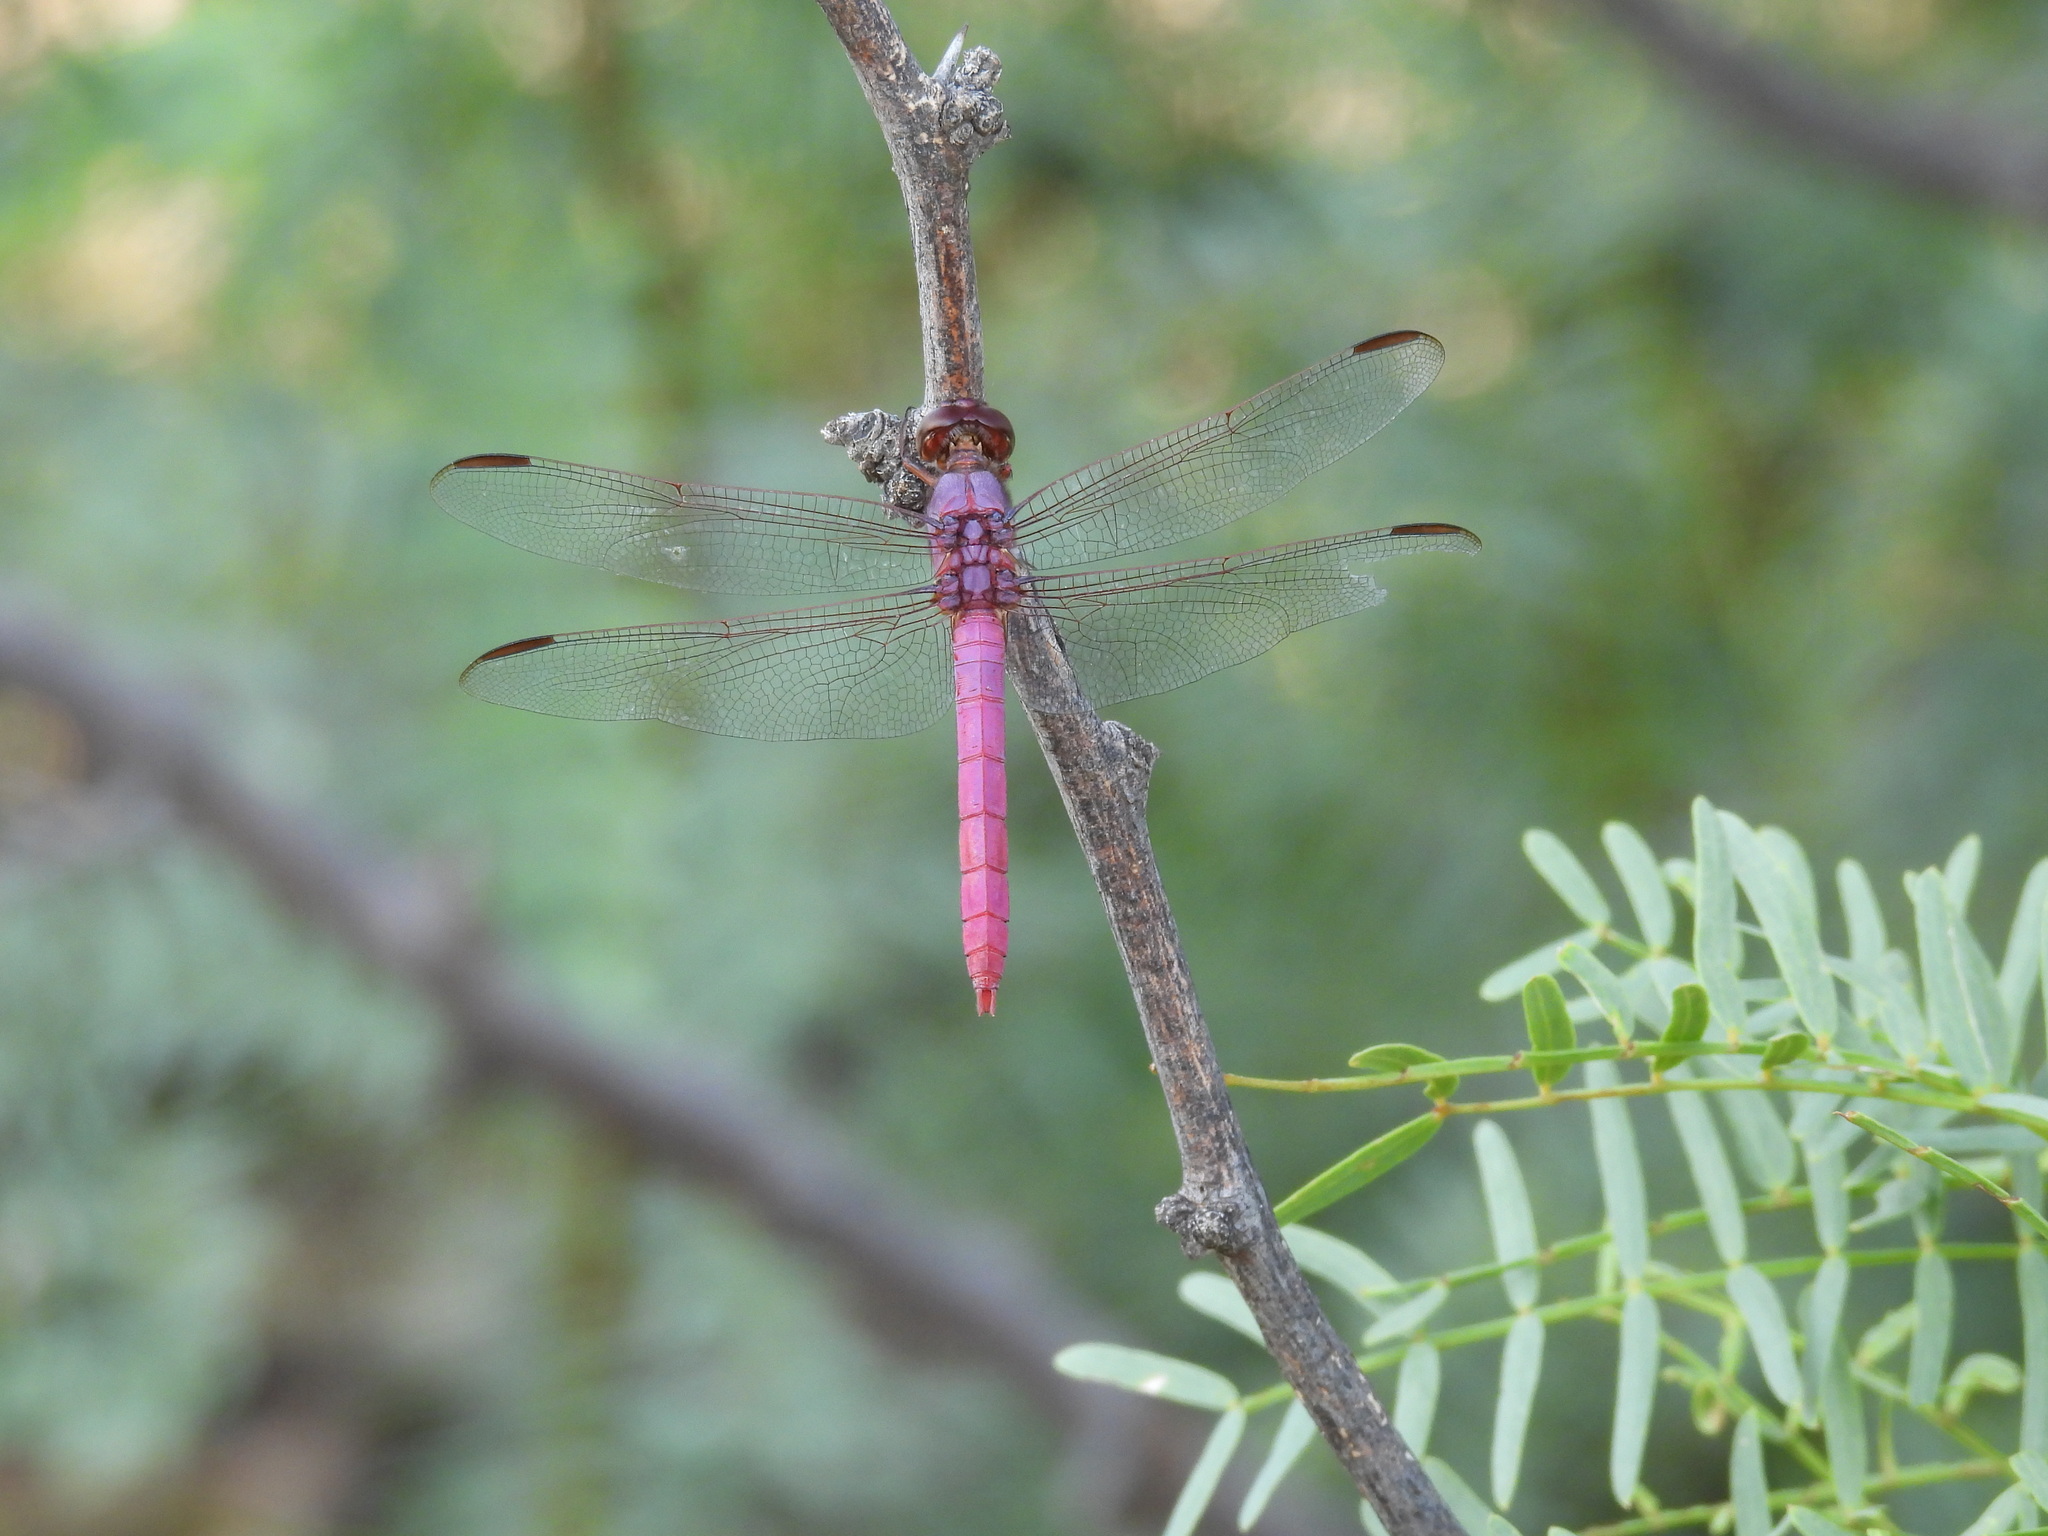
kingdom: Animalia
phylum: Arthropoda
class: Insecta
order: Odonata
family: Libellulidae
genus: Orthemis
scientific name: Orthemis ferruginea
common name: Roseate skimmer
